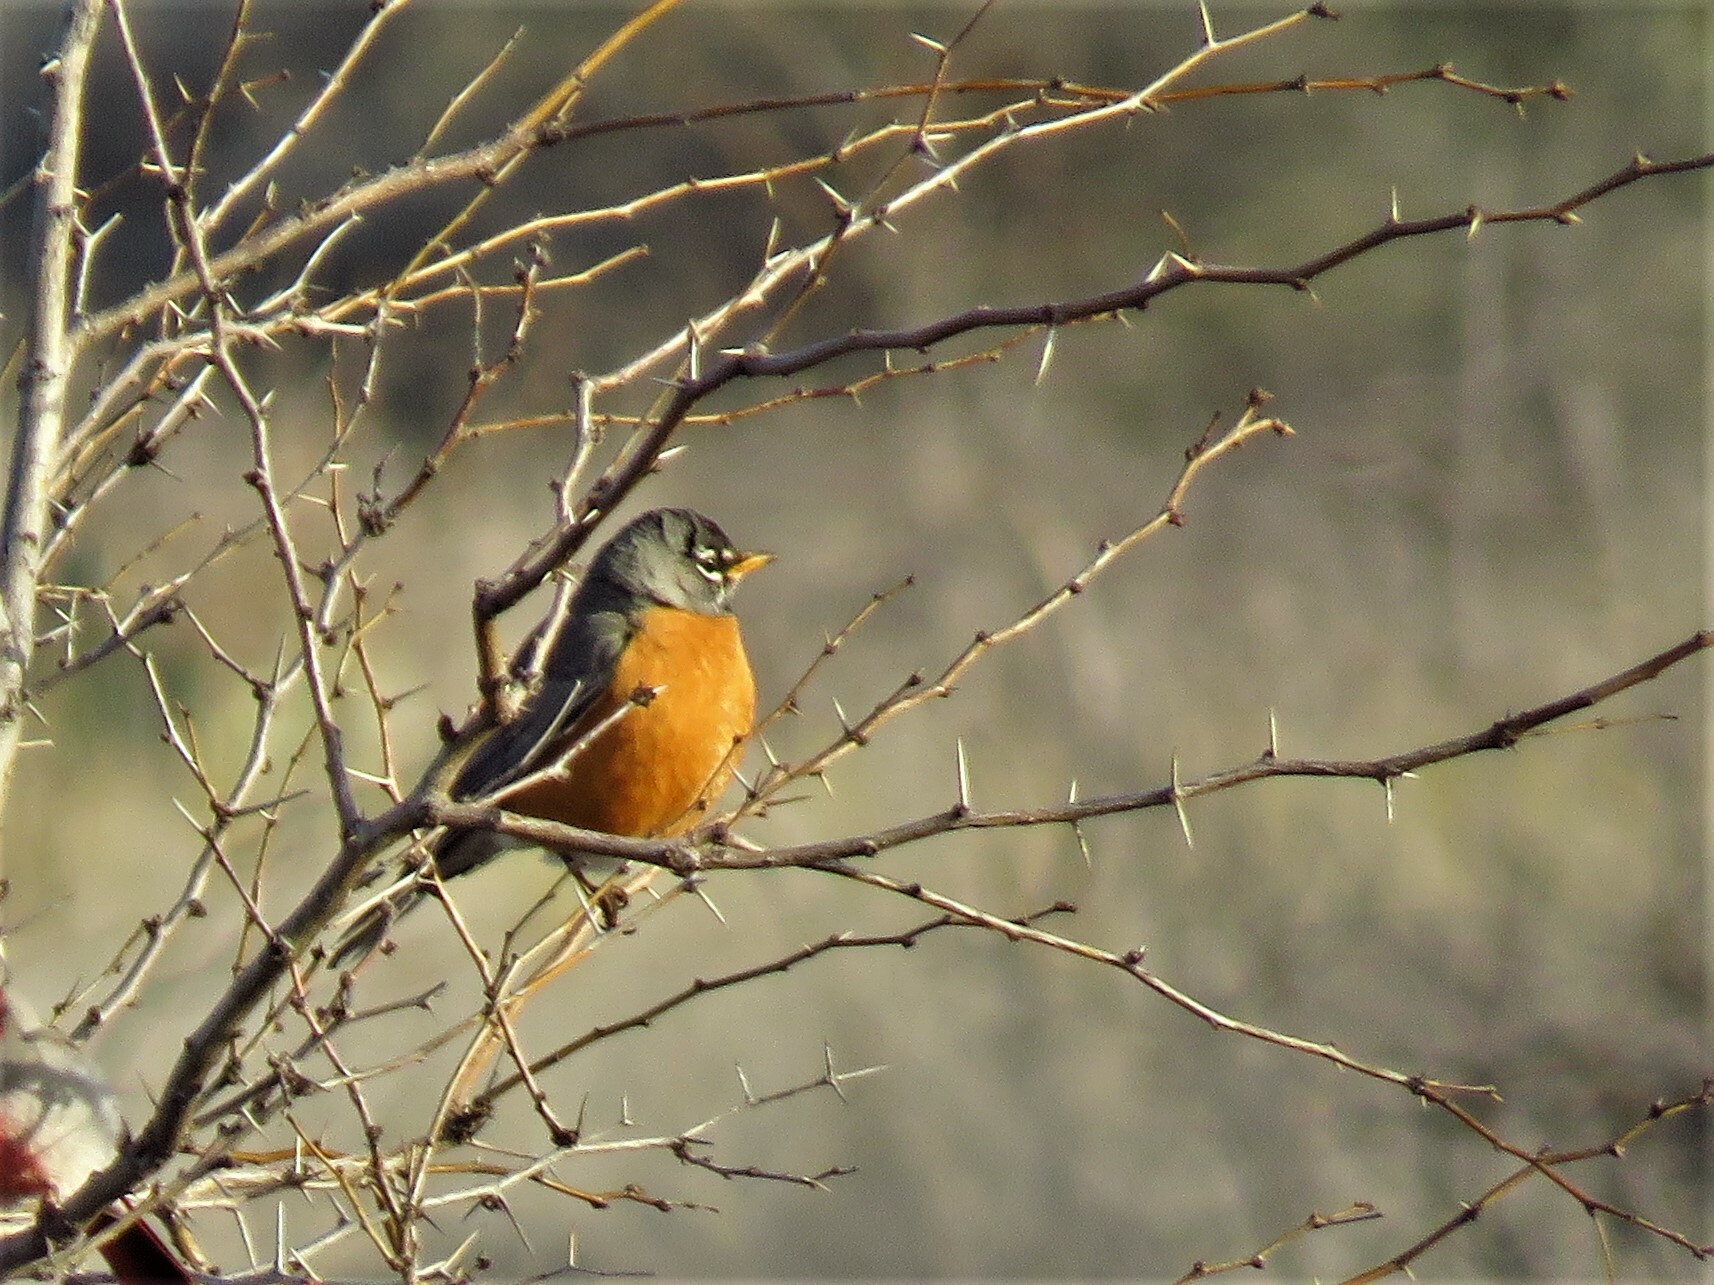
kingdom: Animalia
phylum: Chordata
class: Aves
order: Passeriformes
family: Turdidae
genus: Turdus
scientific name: Turdus migratorius
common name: American robin
